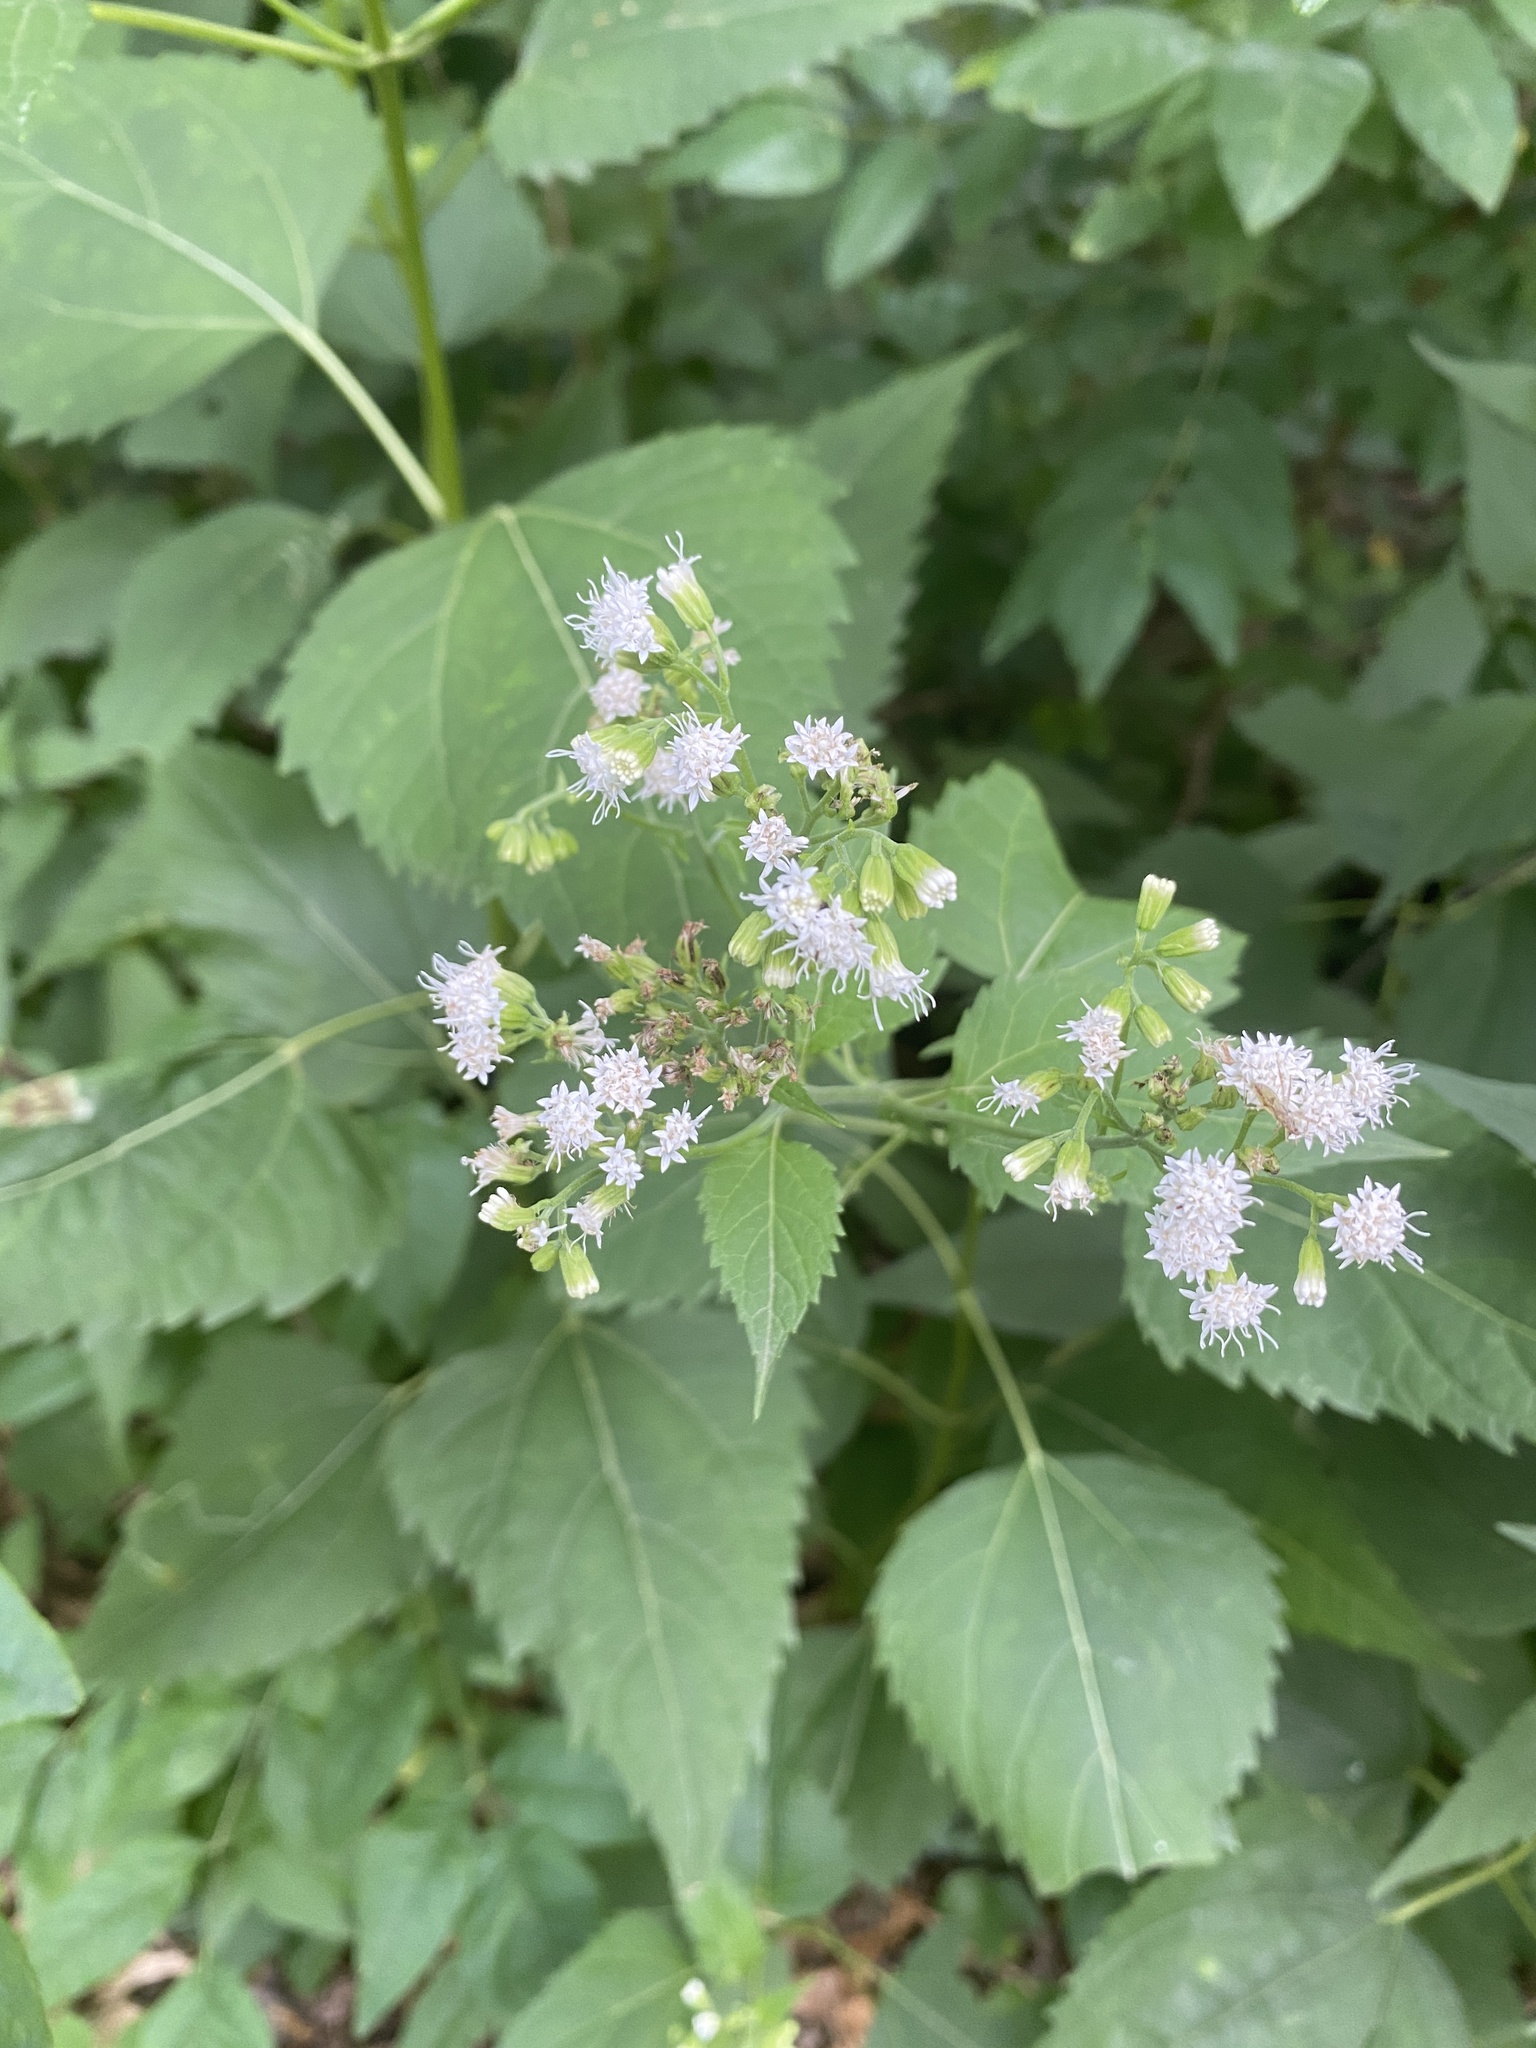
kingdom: Plantae
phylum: Tracheophyta
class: Magnoliopsida
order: Asterales
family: Asteraceae
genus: Ageratina
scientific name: Ageratina altissima
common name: White snakeroot
